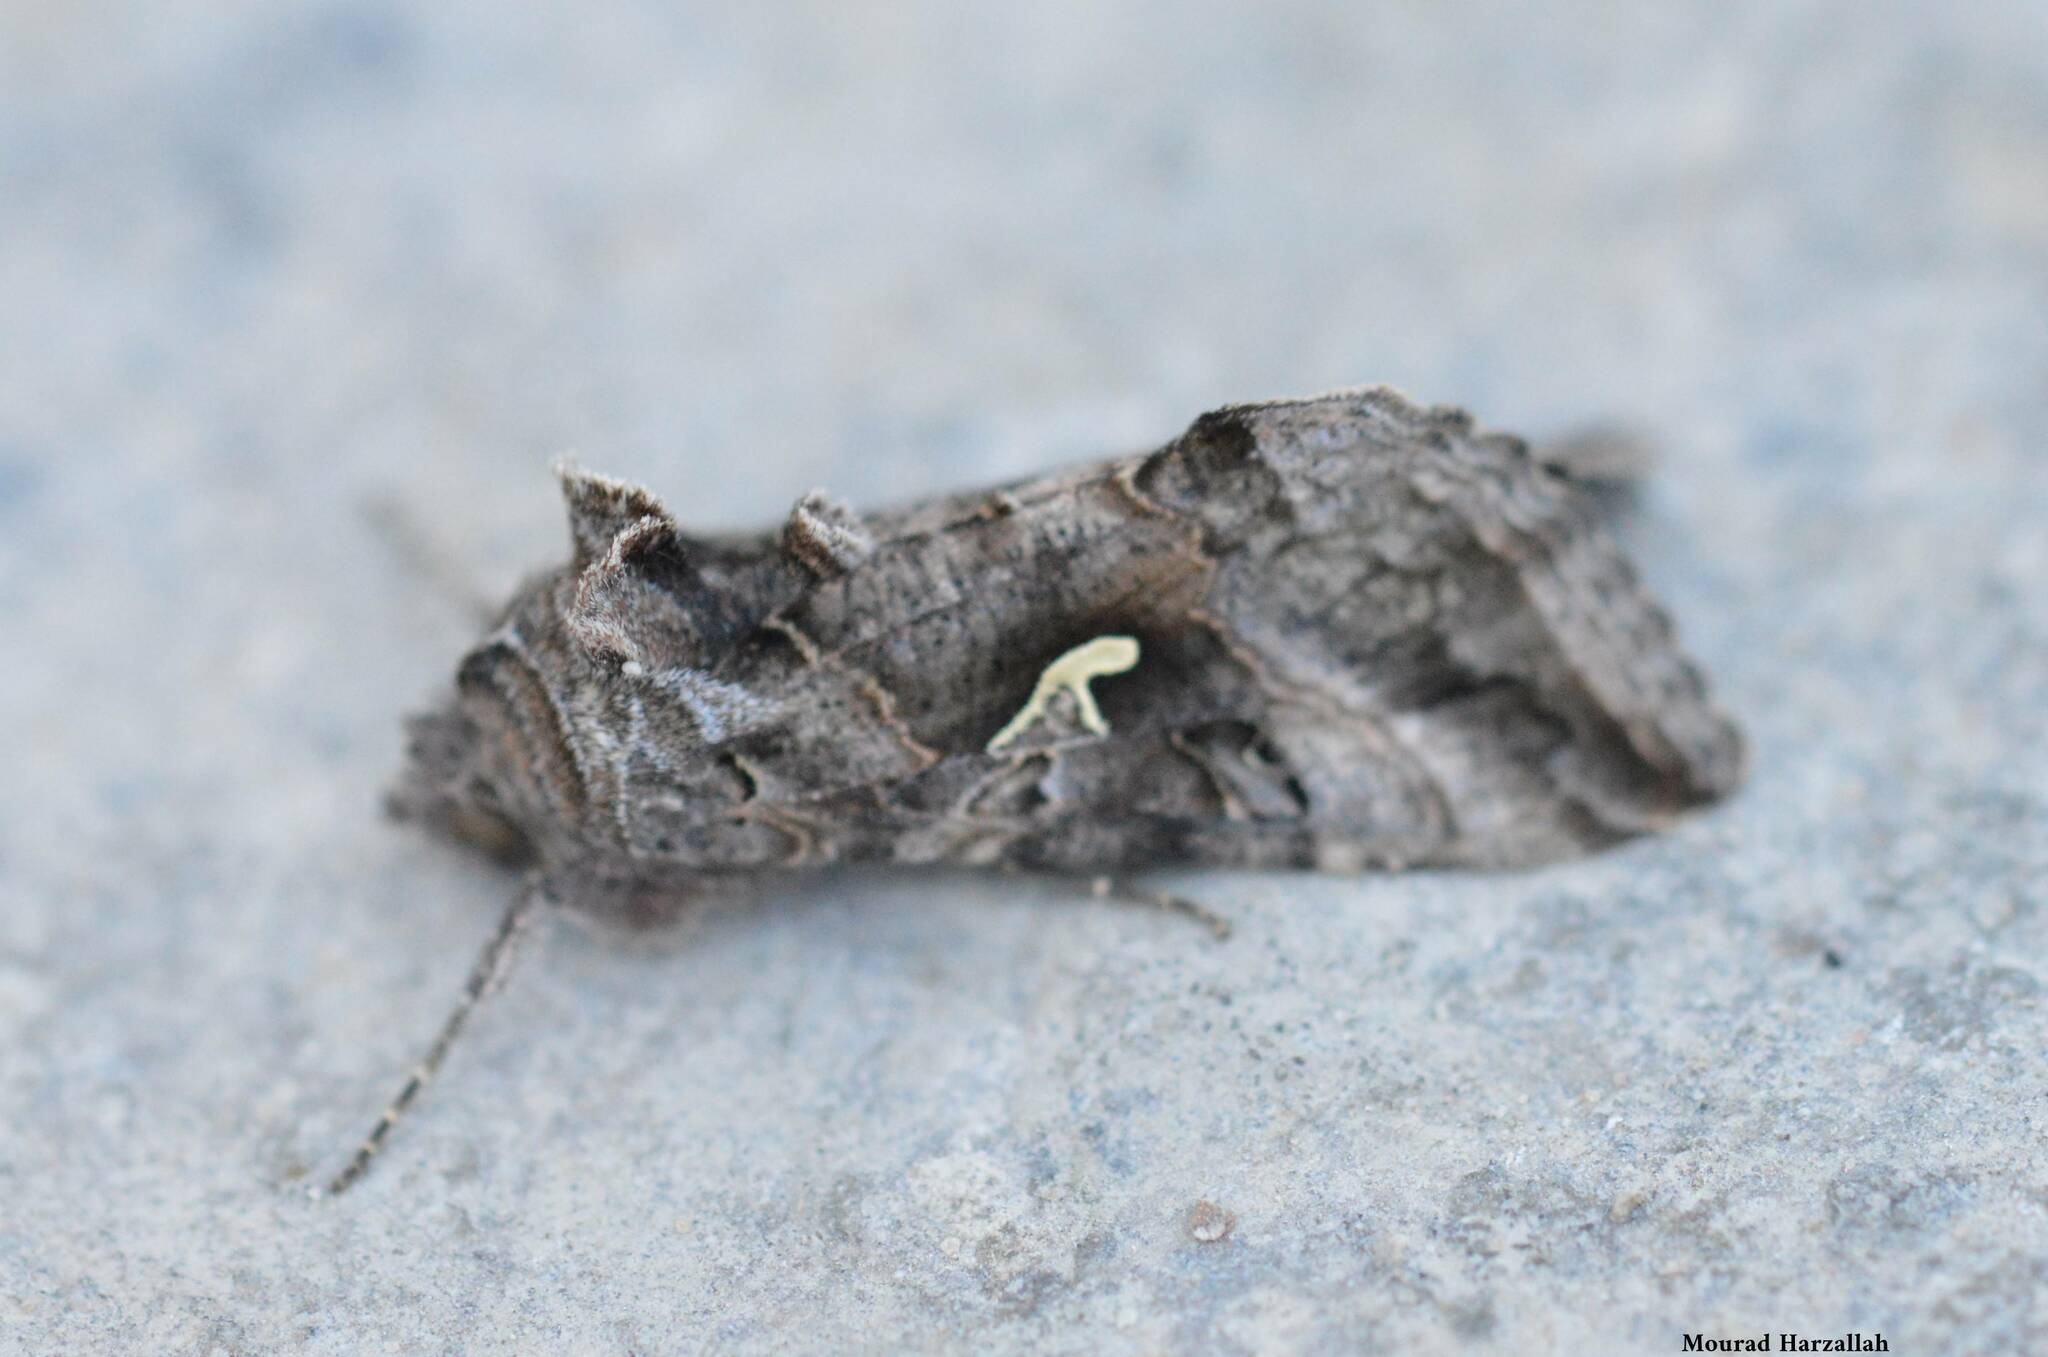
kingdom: Animalia
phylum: Arthropoda
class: Insecta
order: Lepidoptera
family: Noctuidae
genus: Autographa
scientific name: Autographa gamma
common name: Silver y
